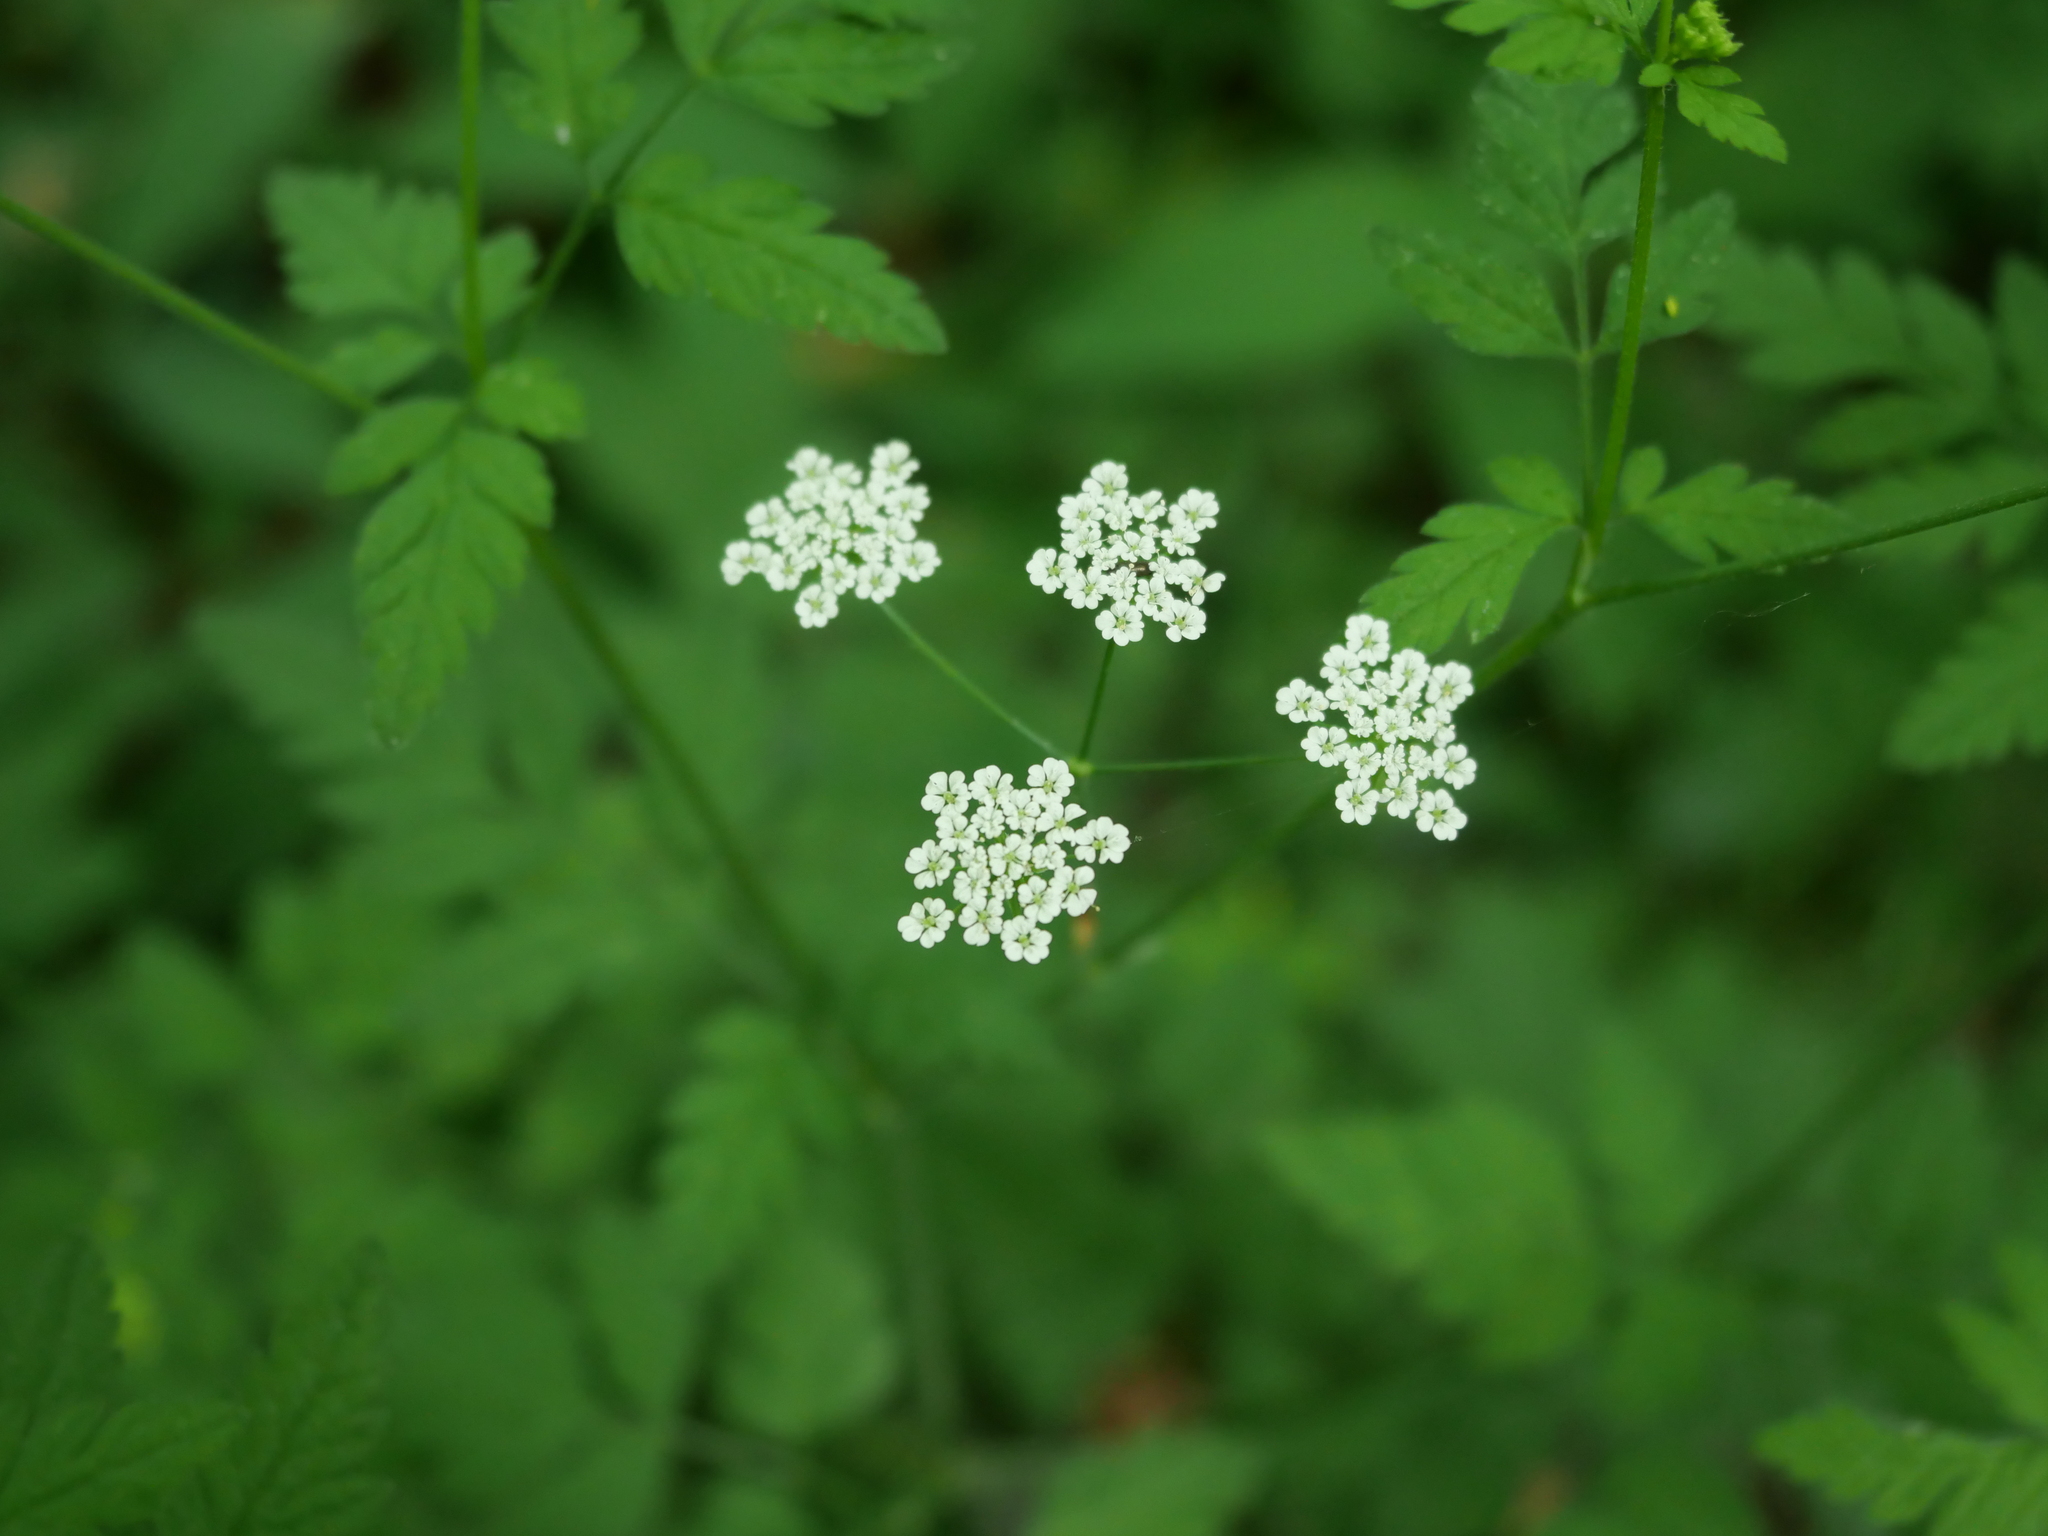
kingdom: Plantae
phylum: Tracheophyta
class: Magnoliopsida
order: Apiales
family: Apiaceae
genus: Chaerophyllum
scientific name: Chaerophyllum temulum
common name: Rough chervil
